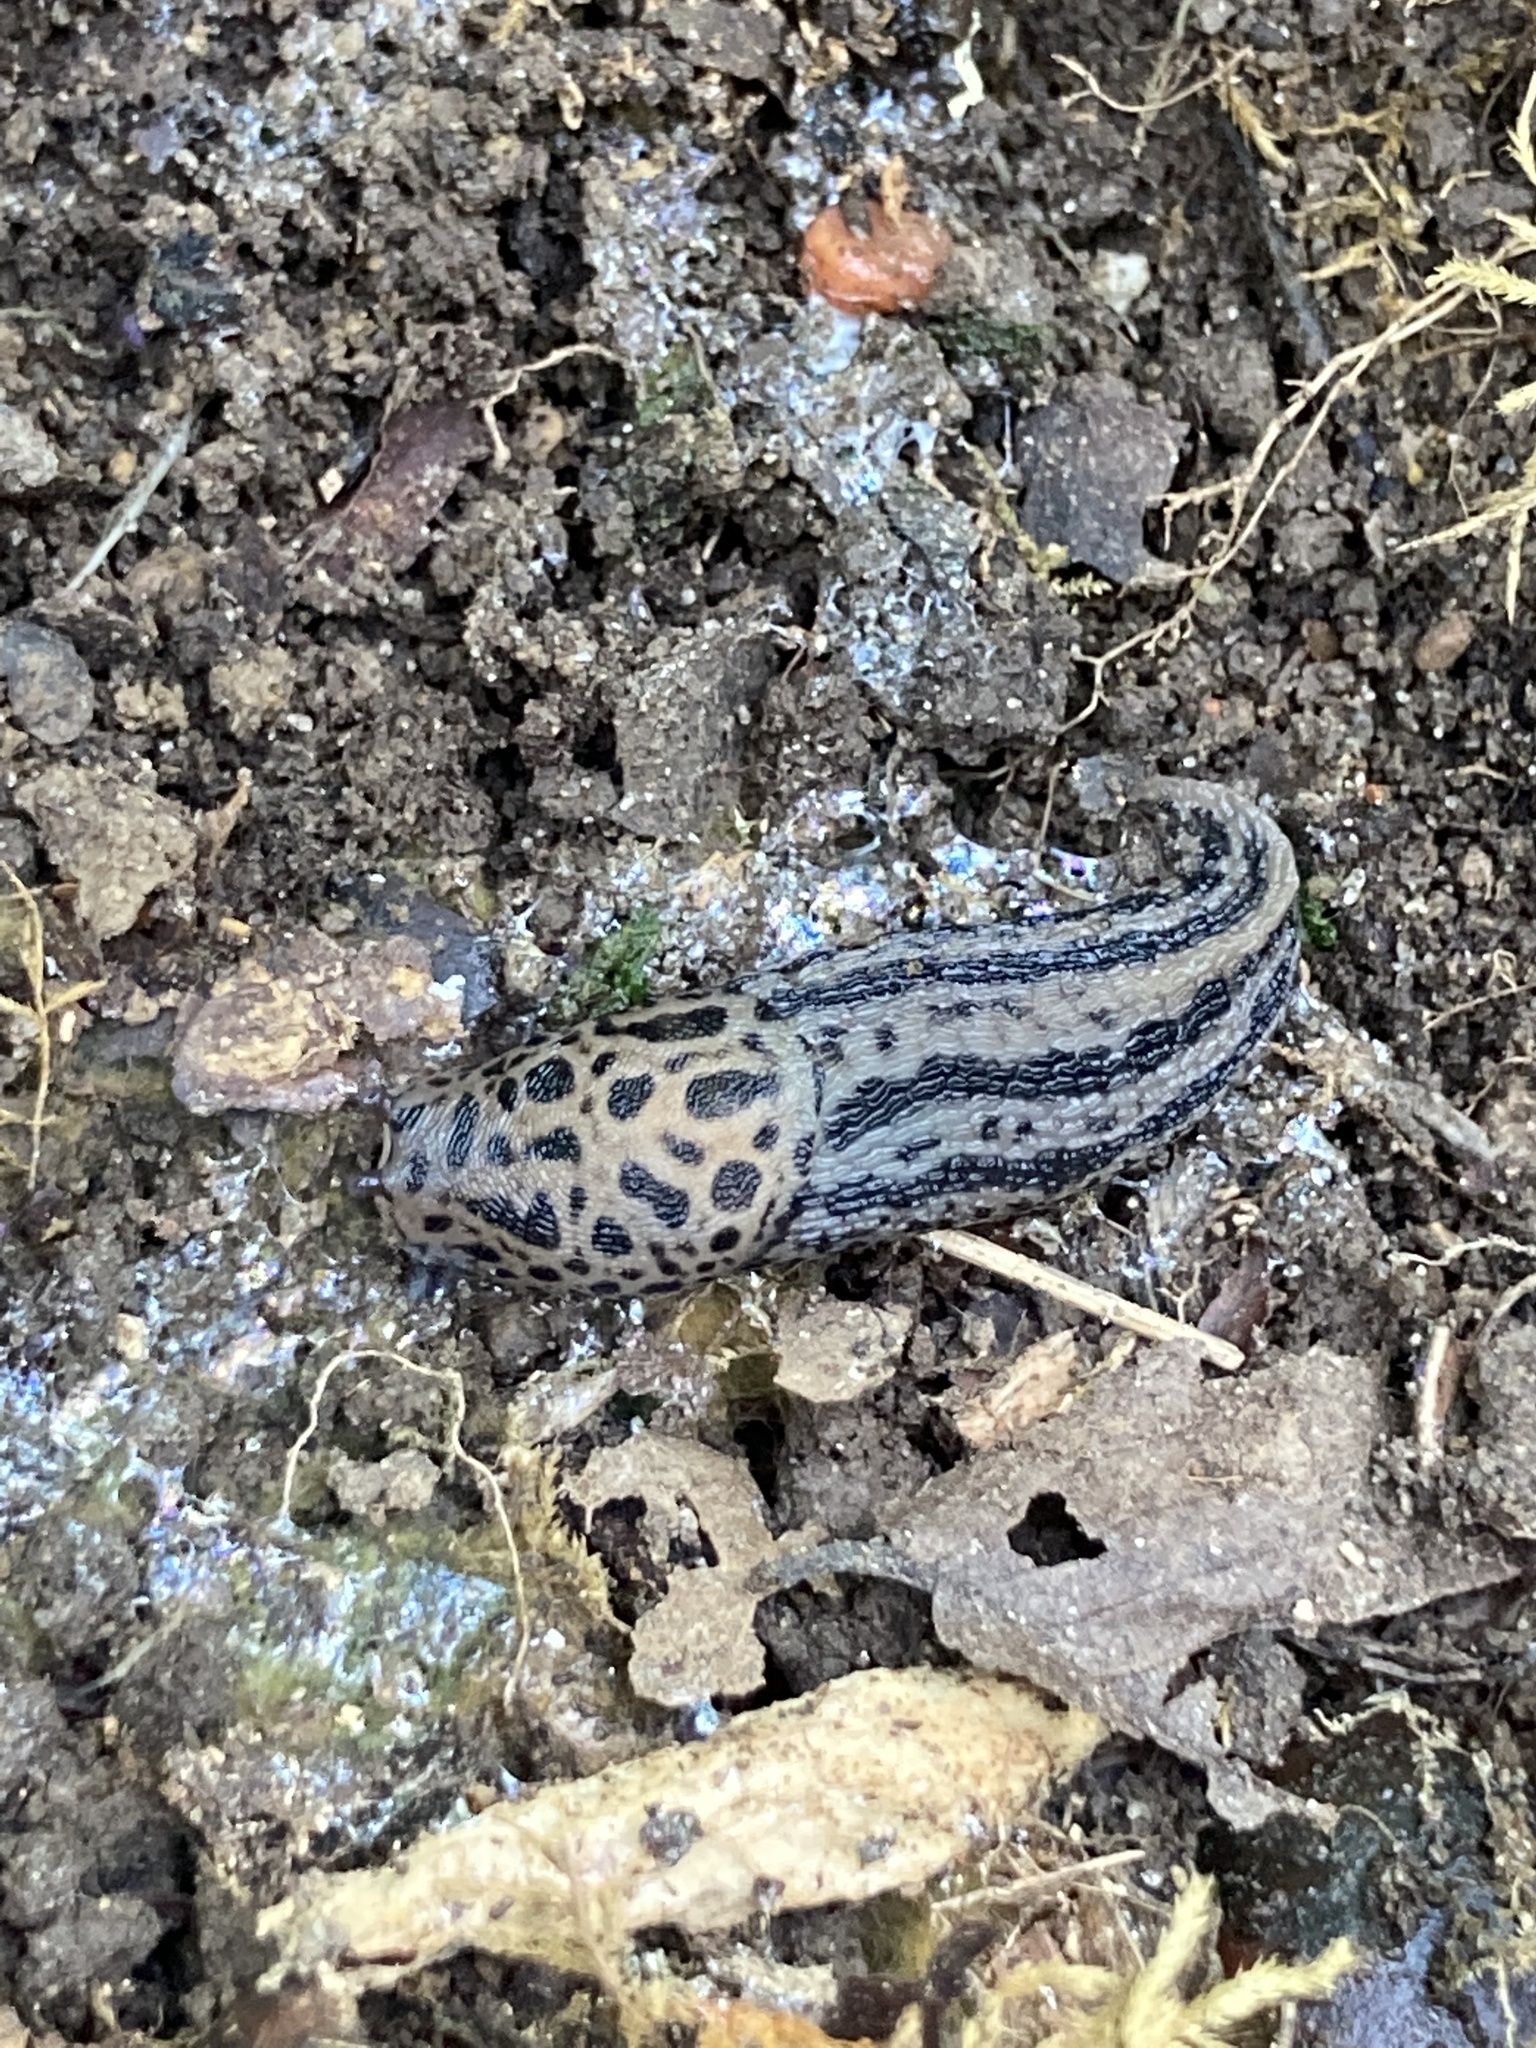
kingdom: Animalia
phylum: Mollusca
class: Gastropoda
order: Stylommatophora
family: Limacidae
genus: Limax
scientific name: Limax maximus
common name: Great grey slug
